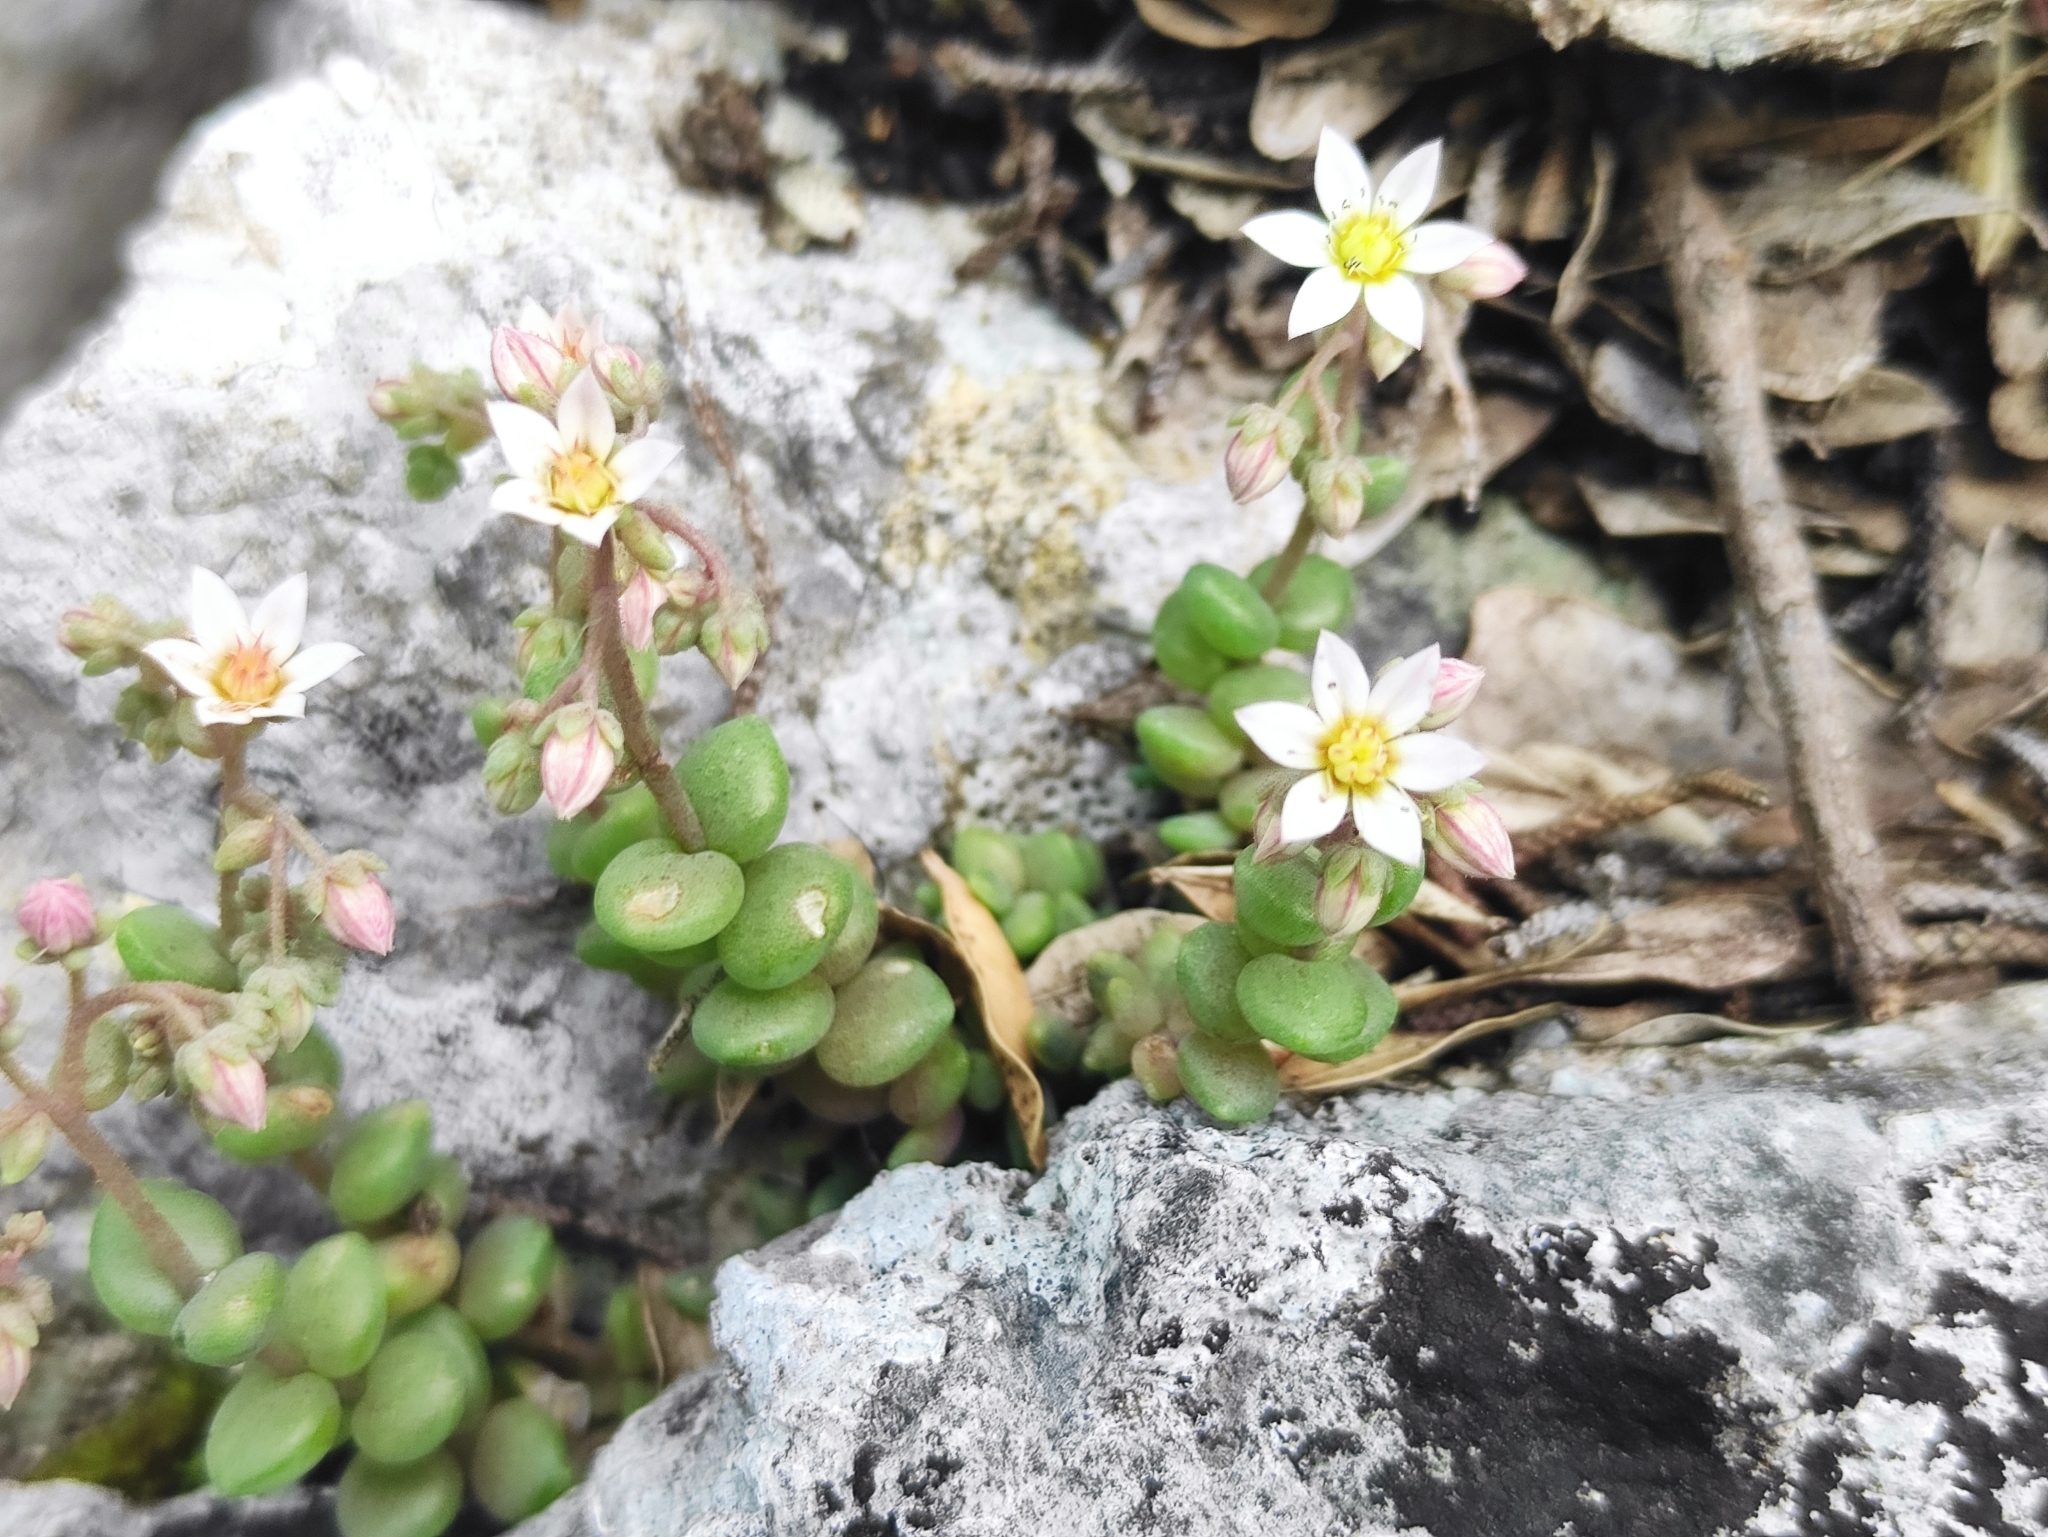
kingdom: Plantae
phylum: Tracheophyta
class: Magnoliopsida
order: Saxifragales
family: Crassulaceae
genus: Sedum
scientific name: Sedum dasyphyllum
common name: Thick-leaf stonecrop
